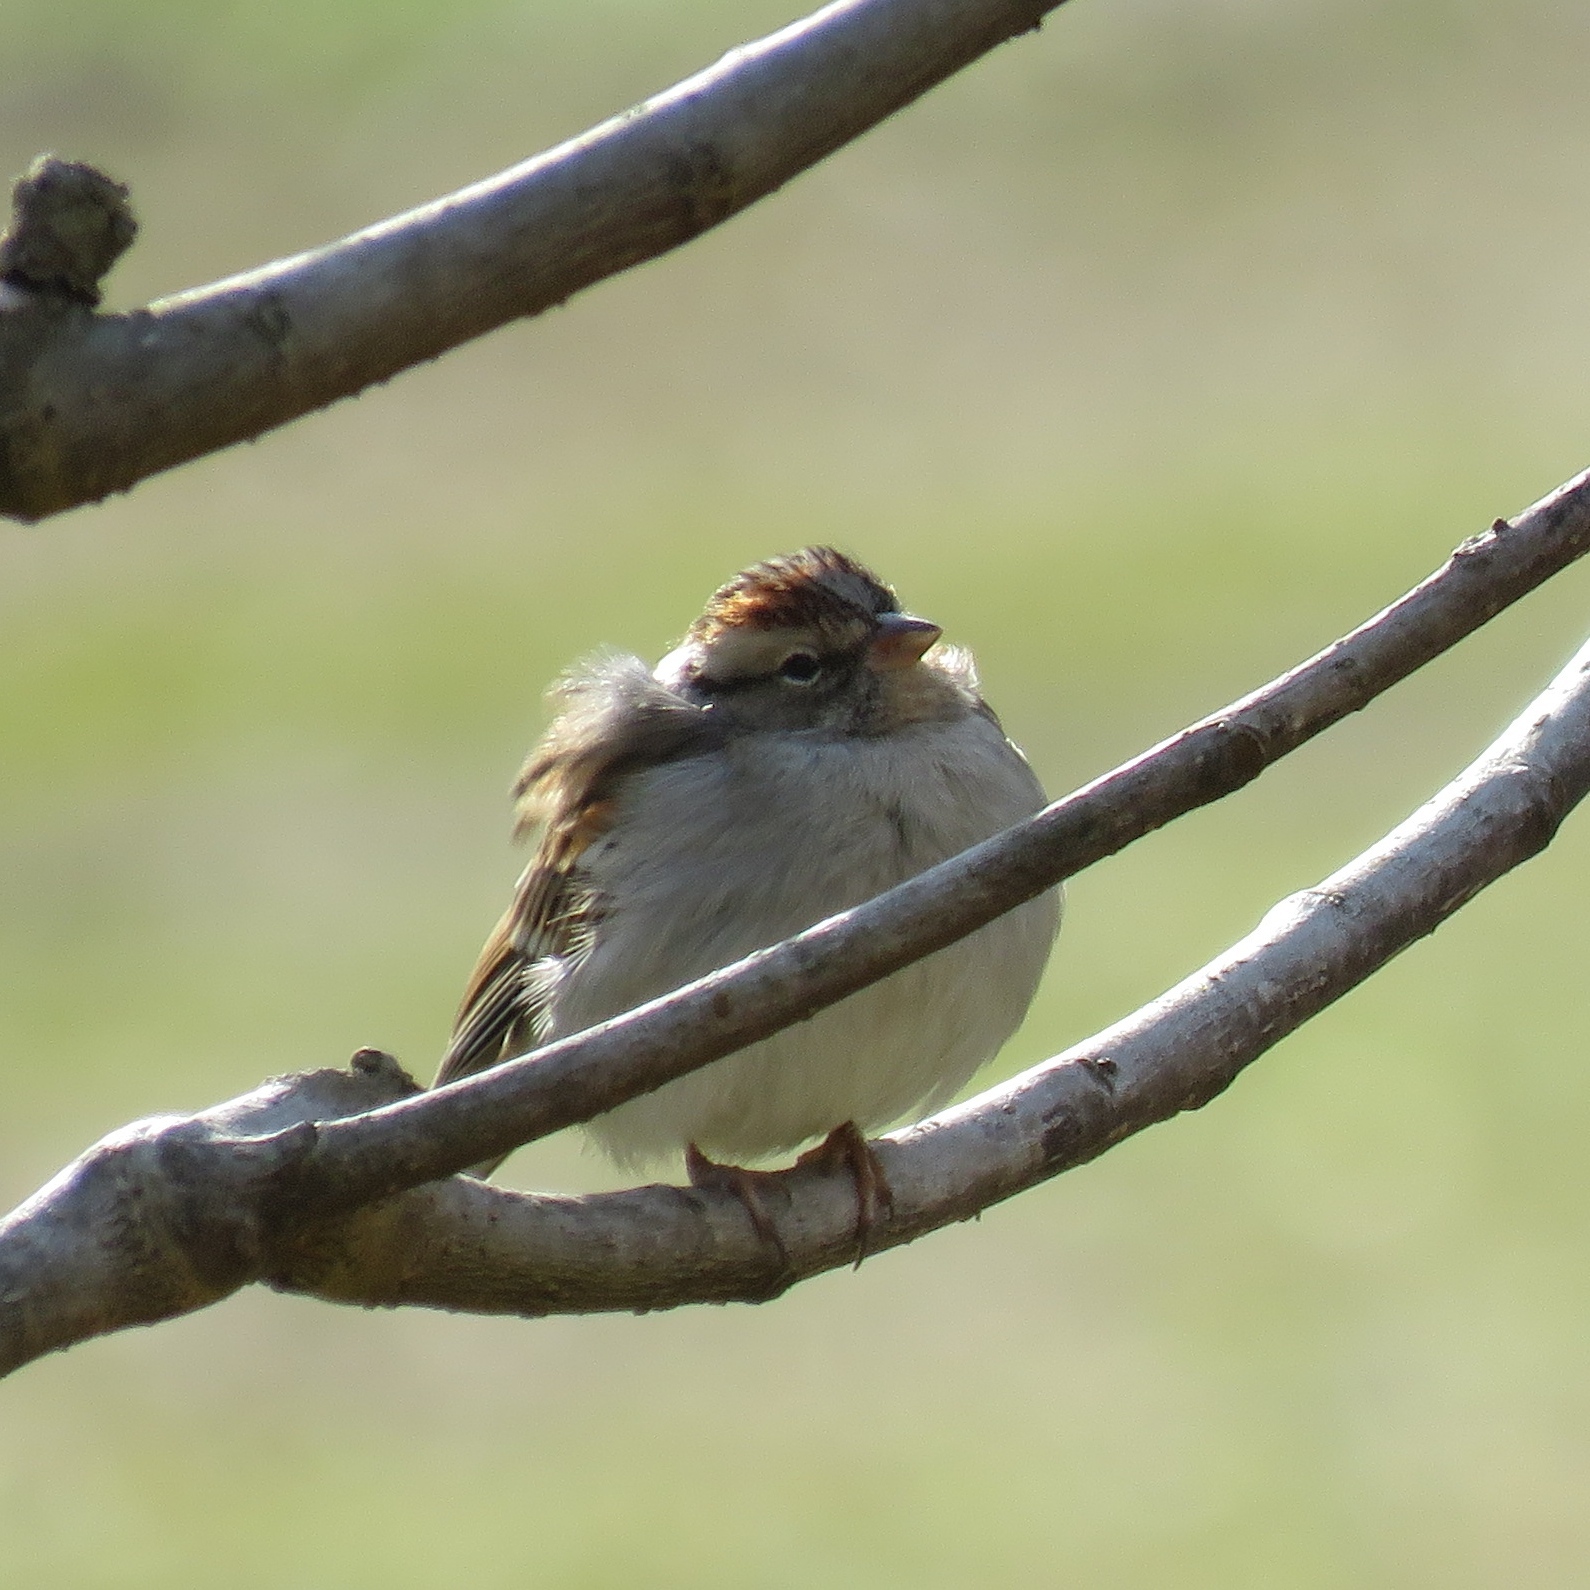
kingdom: Animalia
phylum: Chordata
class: Aves
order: Passeriformes
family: Passerellidae
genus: Spizella
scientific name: Spizella passerina
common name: Chipping sparrow
